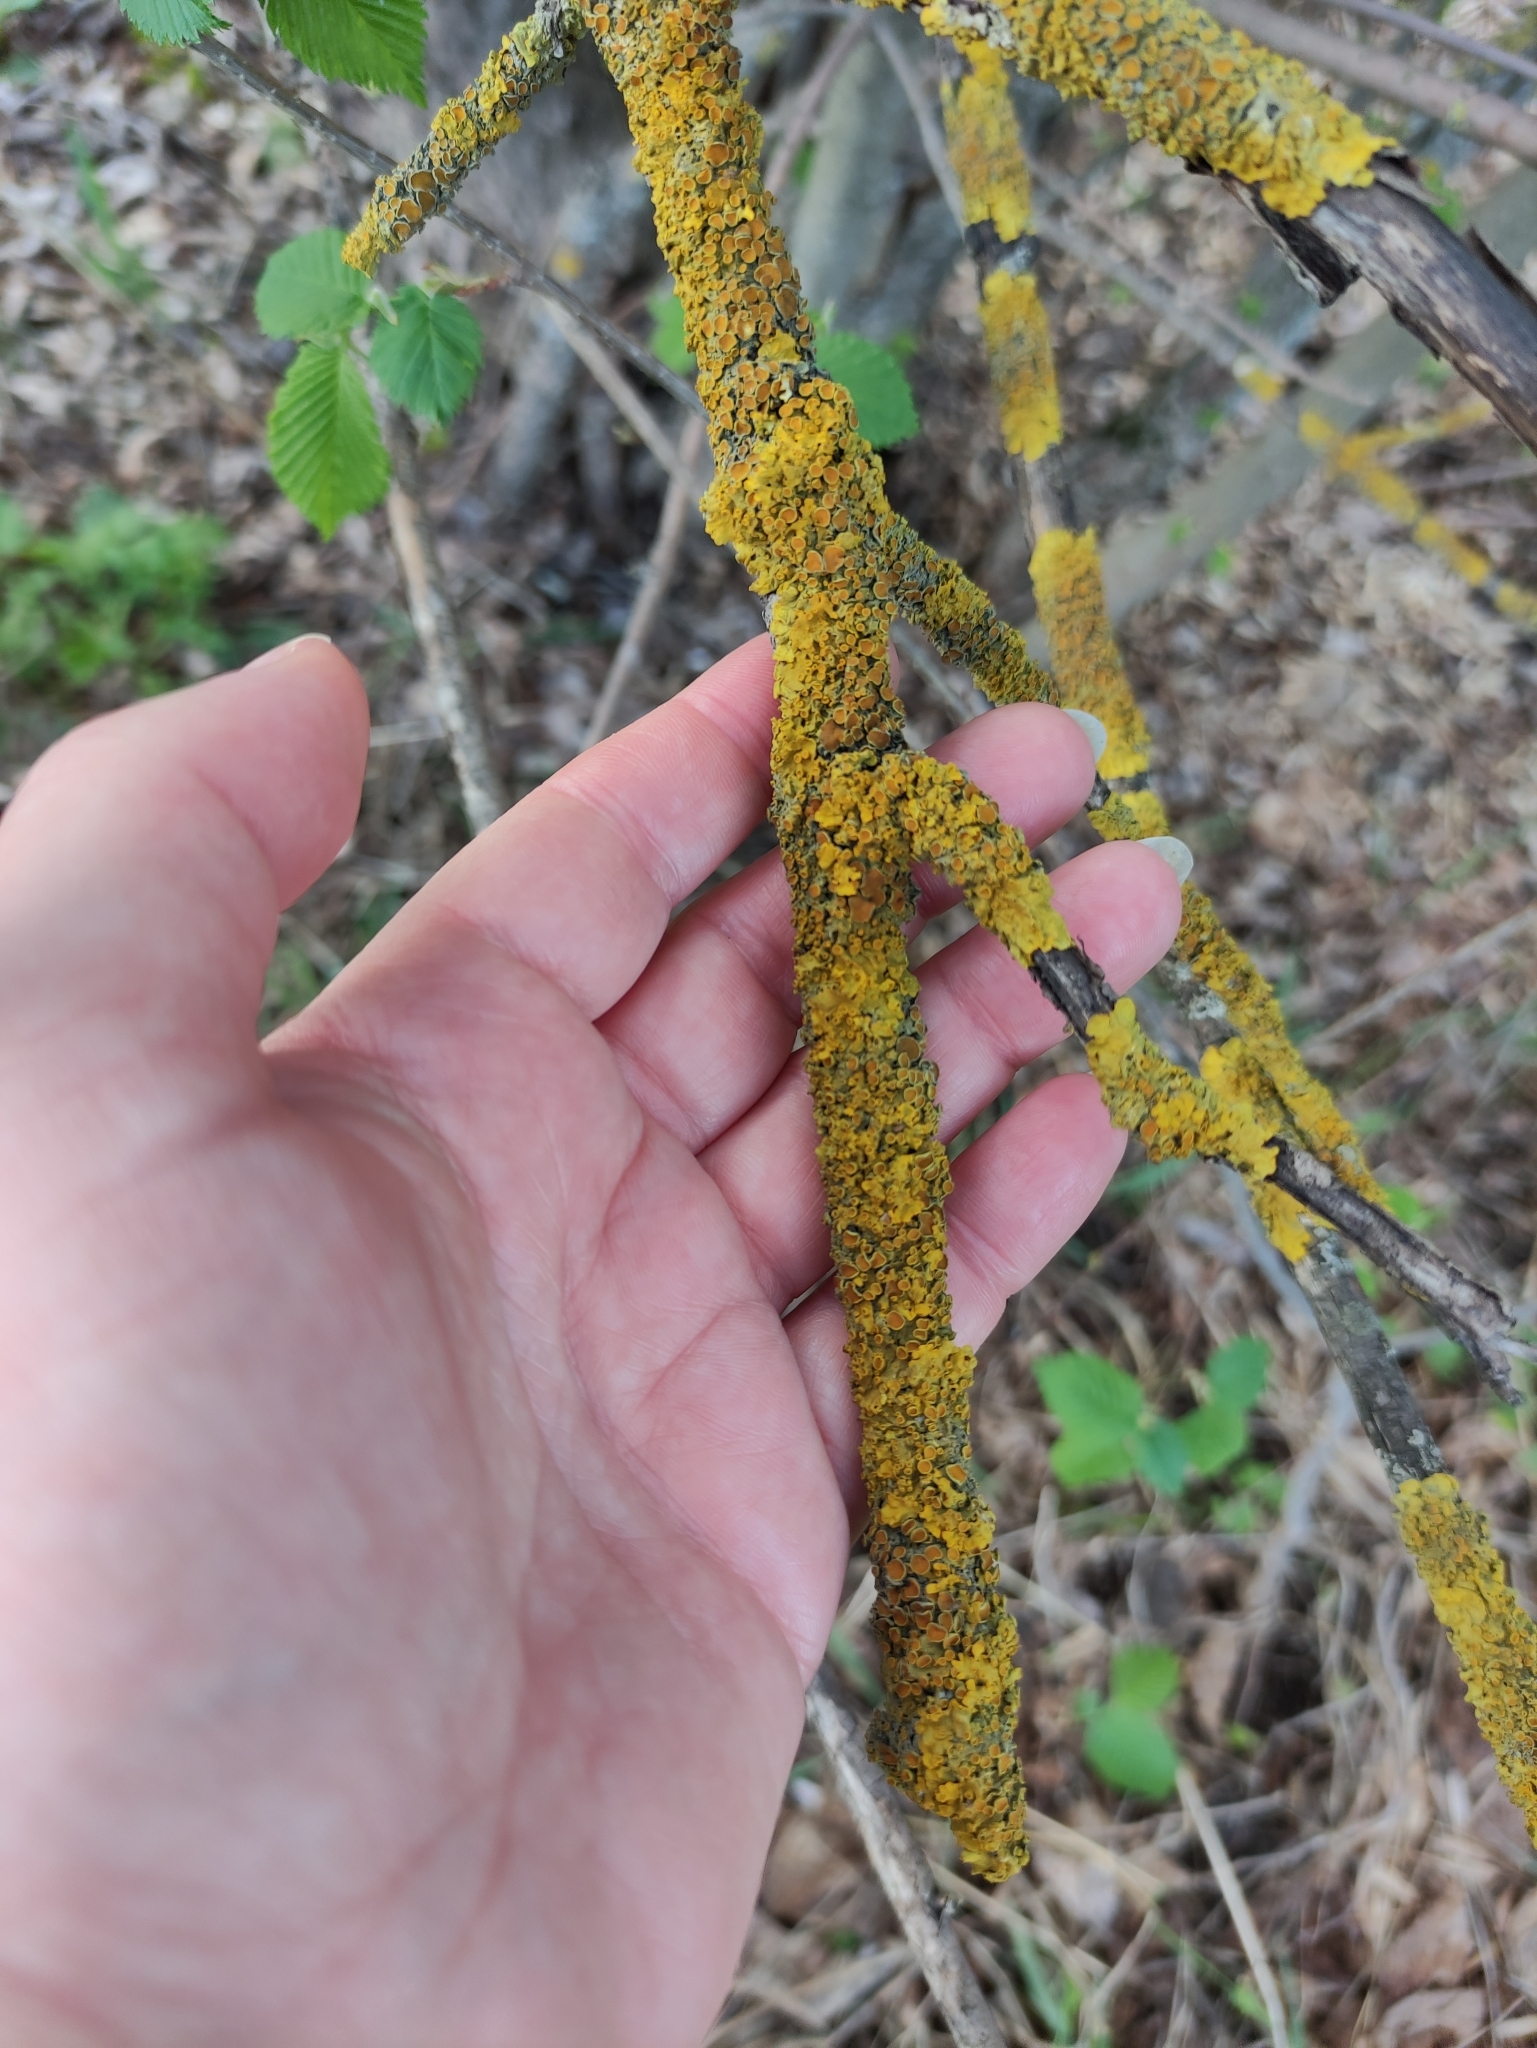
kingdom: Fungi
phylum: Ascomycota
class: Lecanoromycetes
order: Teloschistales
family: Teloschistaceae
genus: Xanthoria
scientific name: Xanthoria parietina
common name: Common orange lichen
